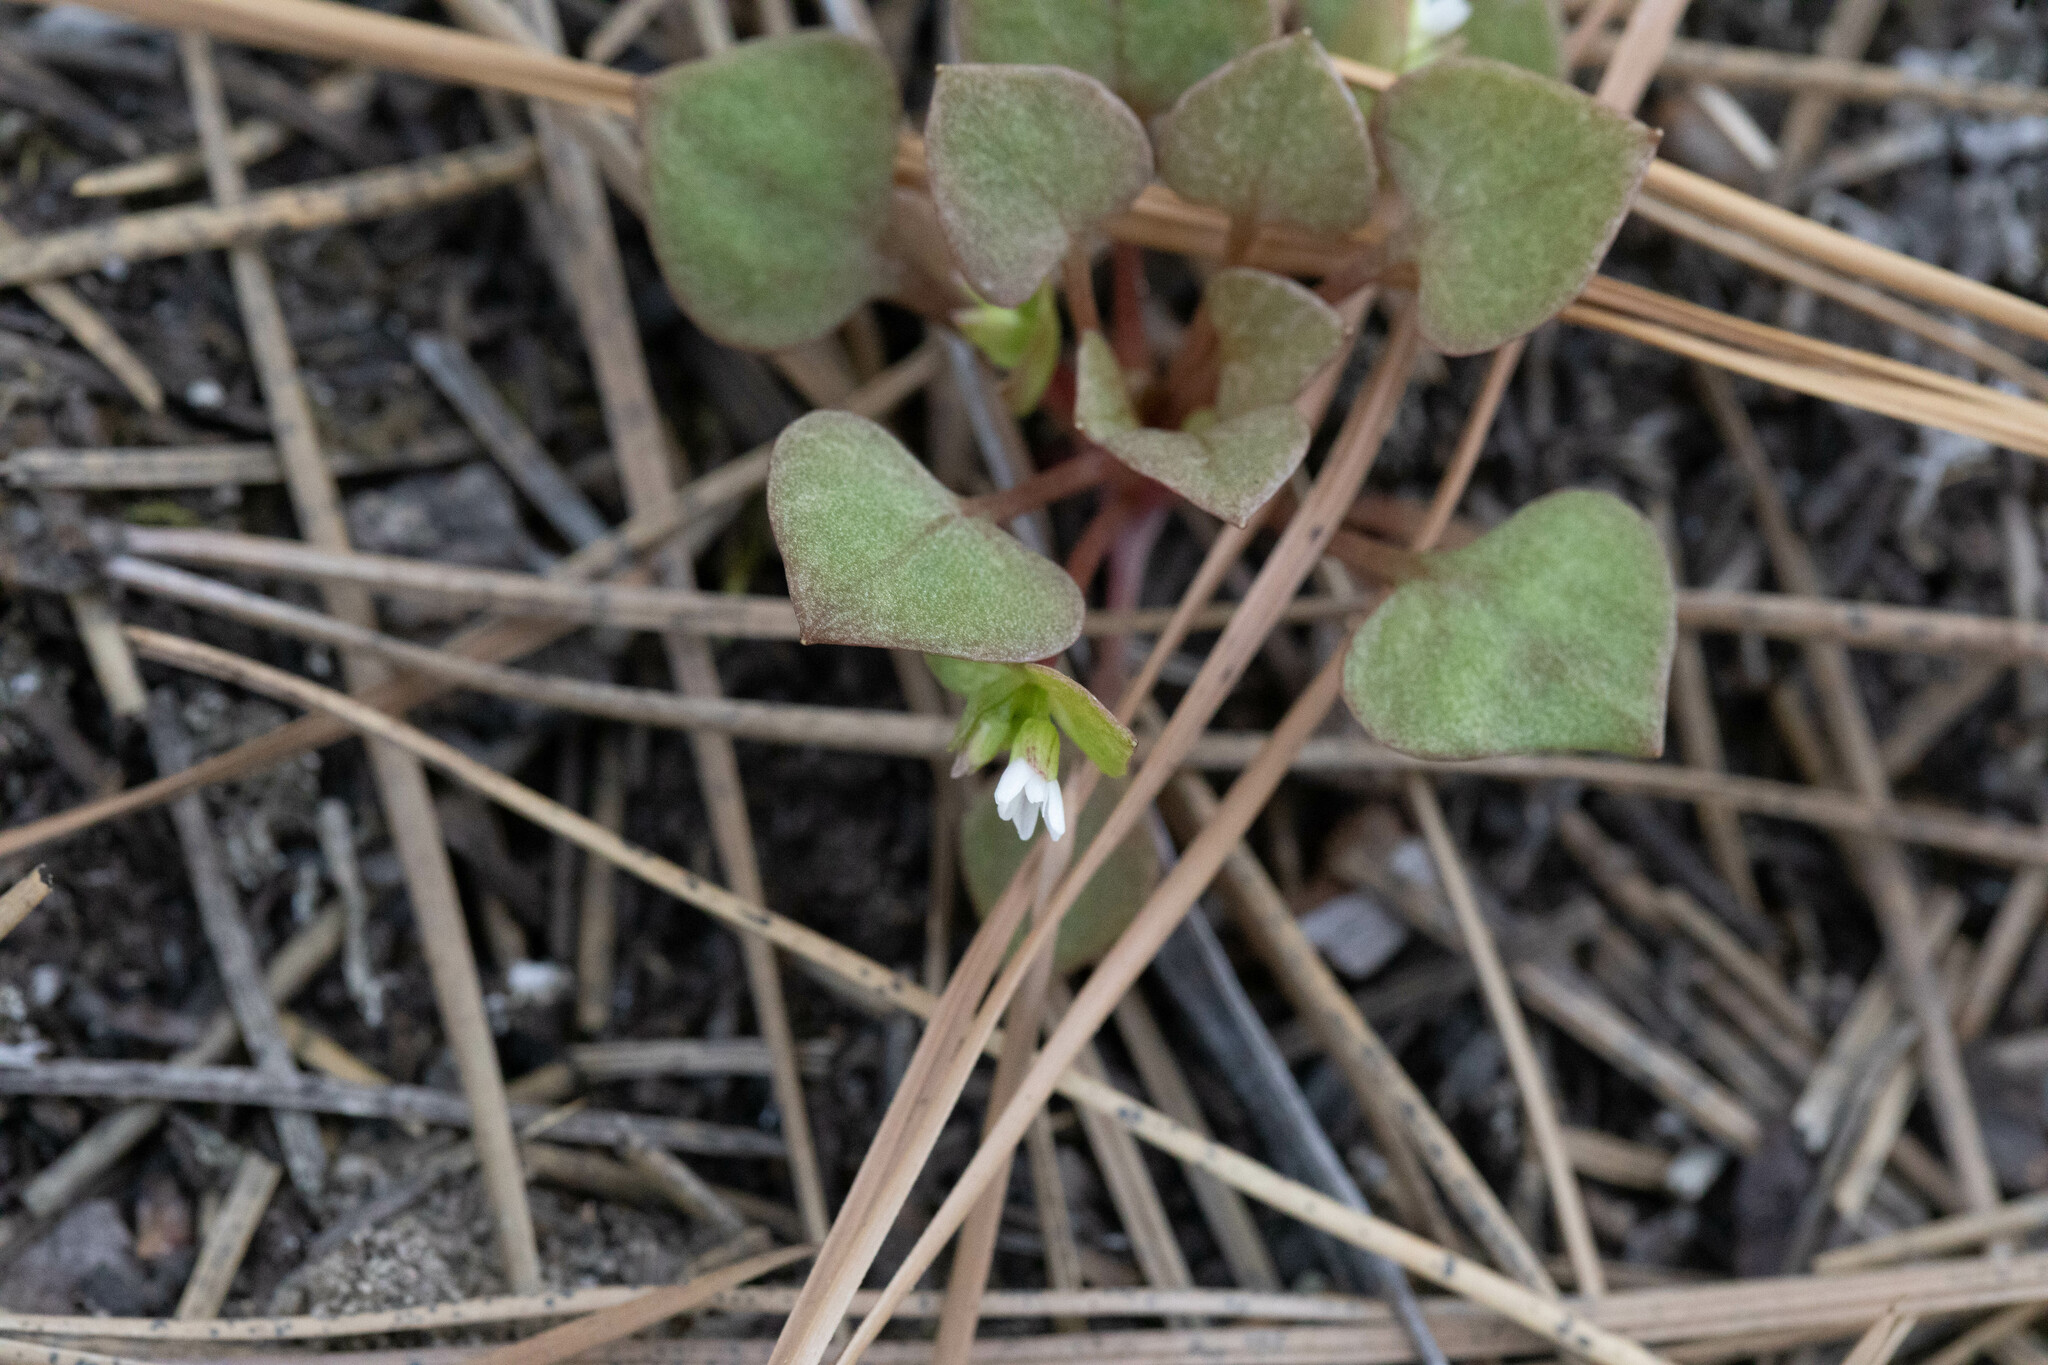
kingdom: Plantae
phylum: Tracheophyta
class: Magnoliopsida
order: Caryophyllales
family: Montiaceae
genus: Claytonia
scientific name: Claytonia rubra
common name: Erubescent miner's-lettuce
